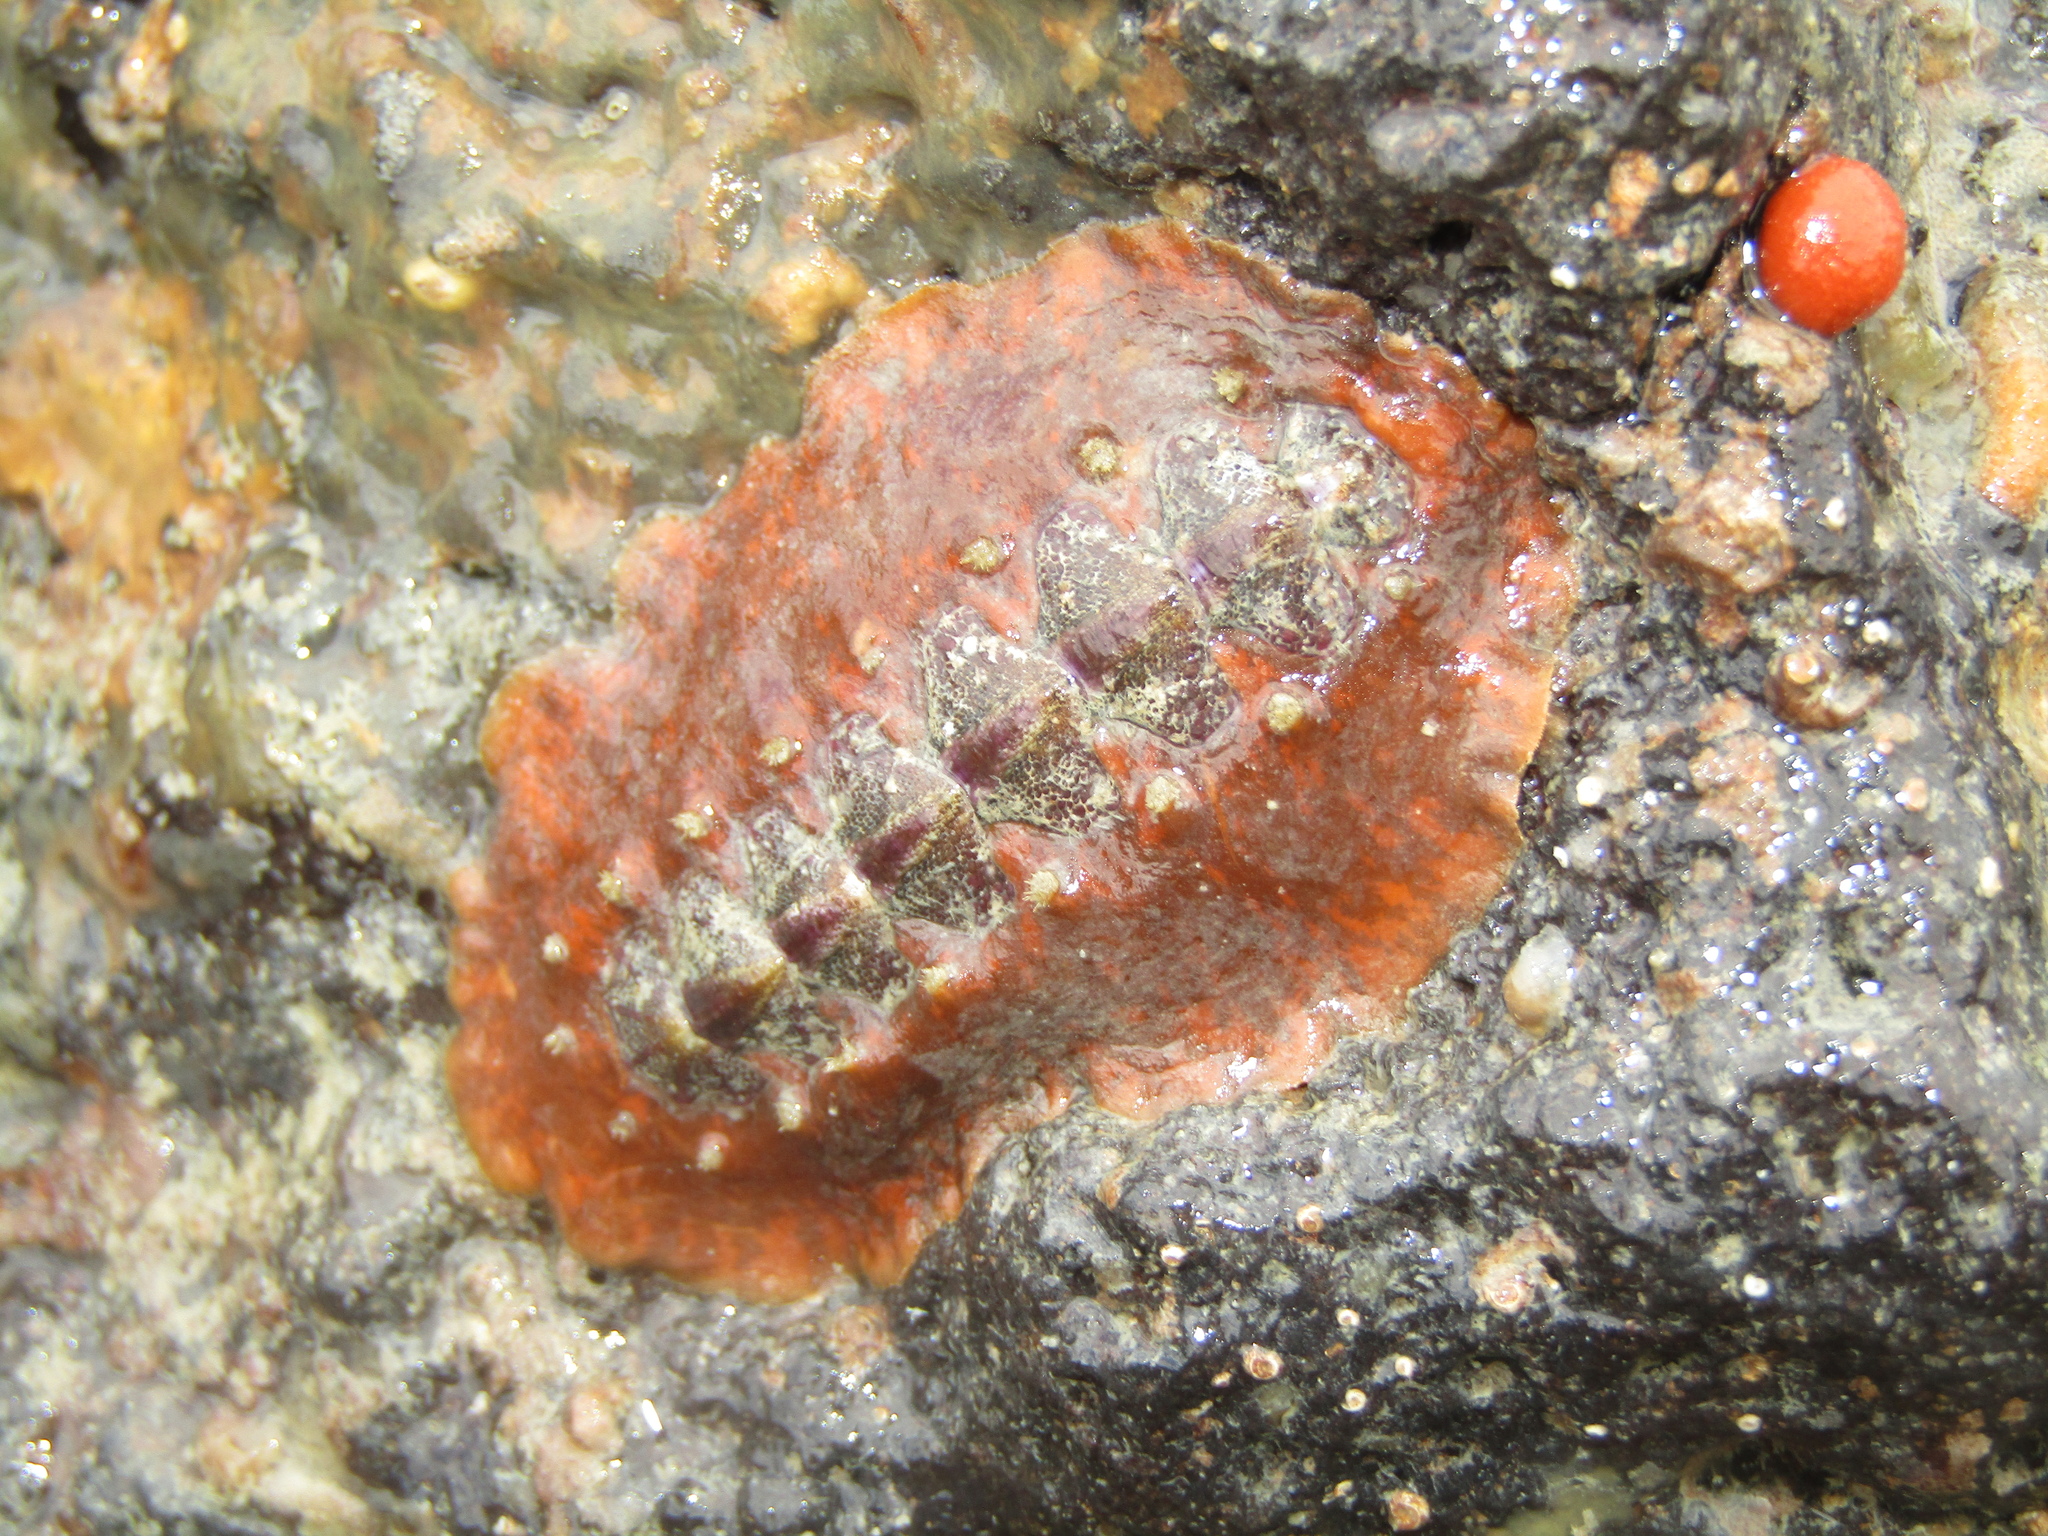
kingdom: Animalia
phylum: Mollusca
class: Polyplacophora
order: Chitonida
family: Acanthochitonidae
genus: Notoplax
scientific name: Notoplax violacea
